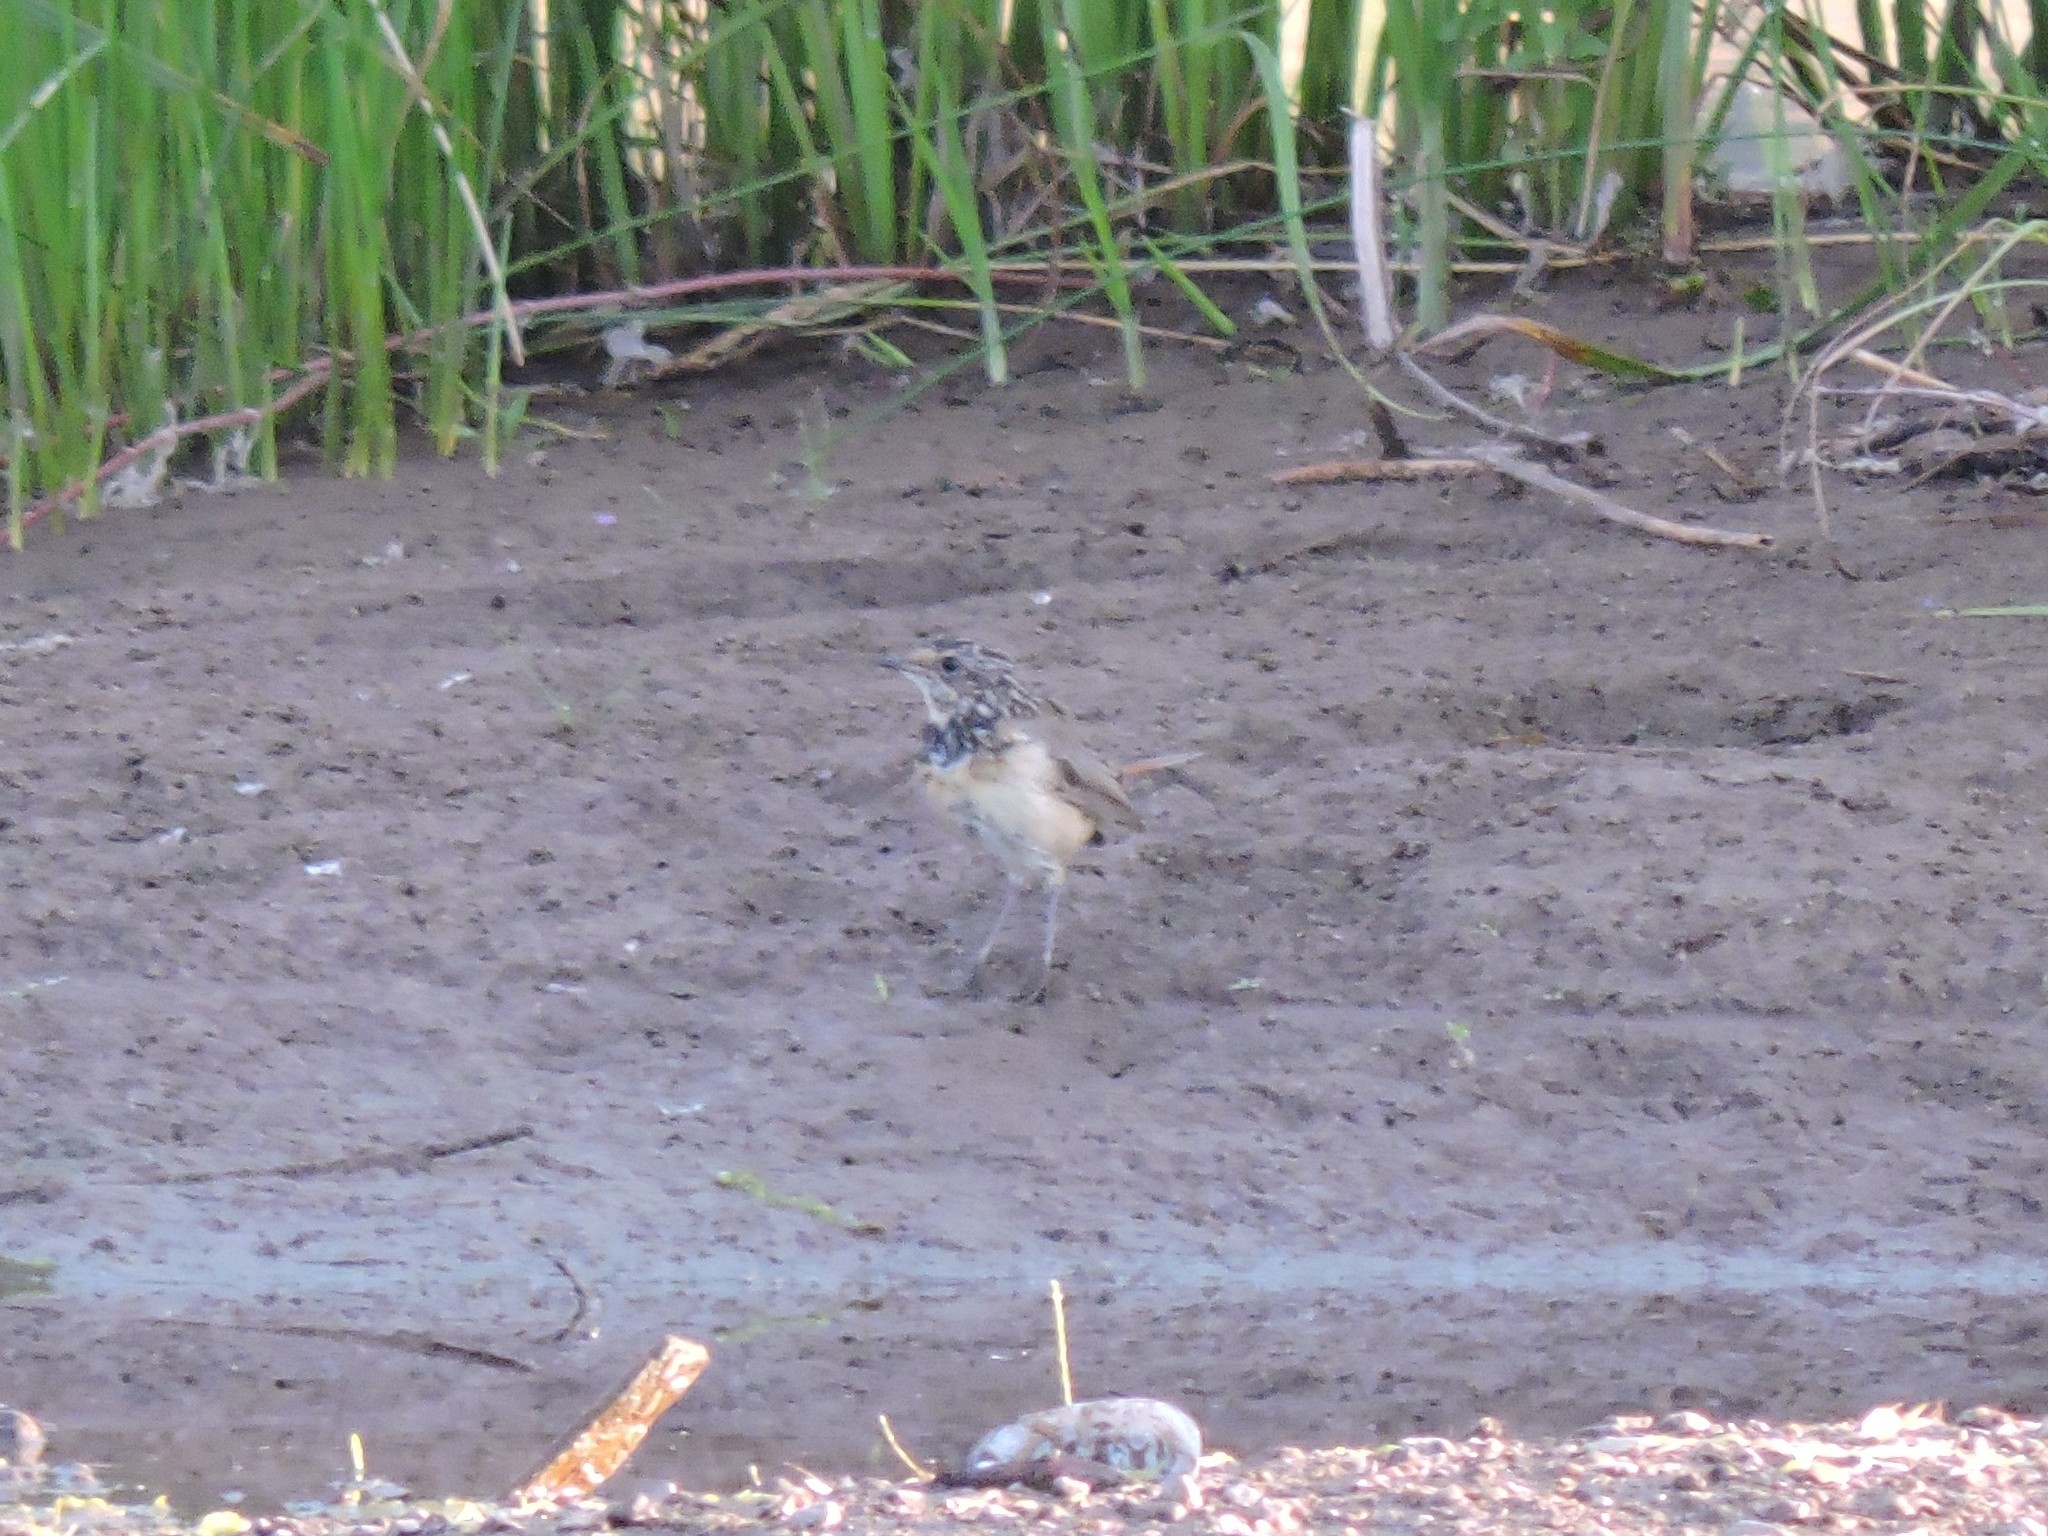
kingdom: Animalia
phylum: Chordata
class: Aves
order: Passeriformes
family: Muscicapidae
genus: Luscinia
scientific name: Luscinia svecica
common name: Bluethroat
